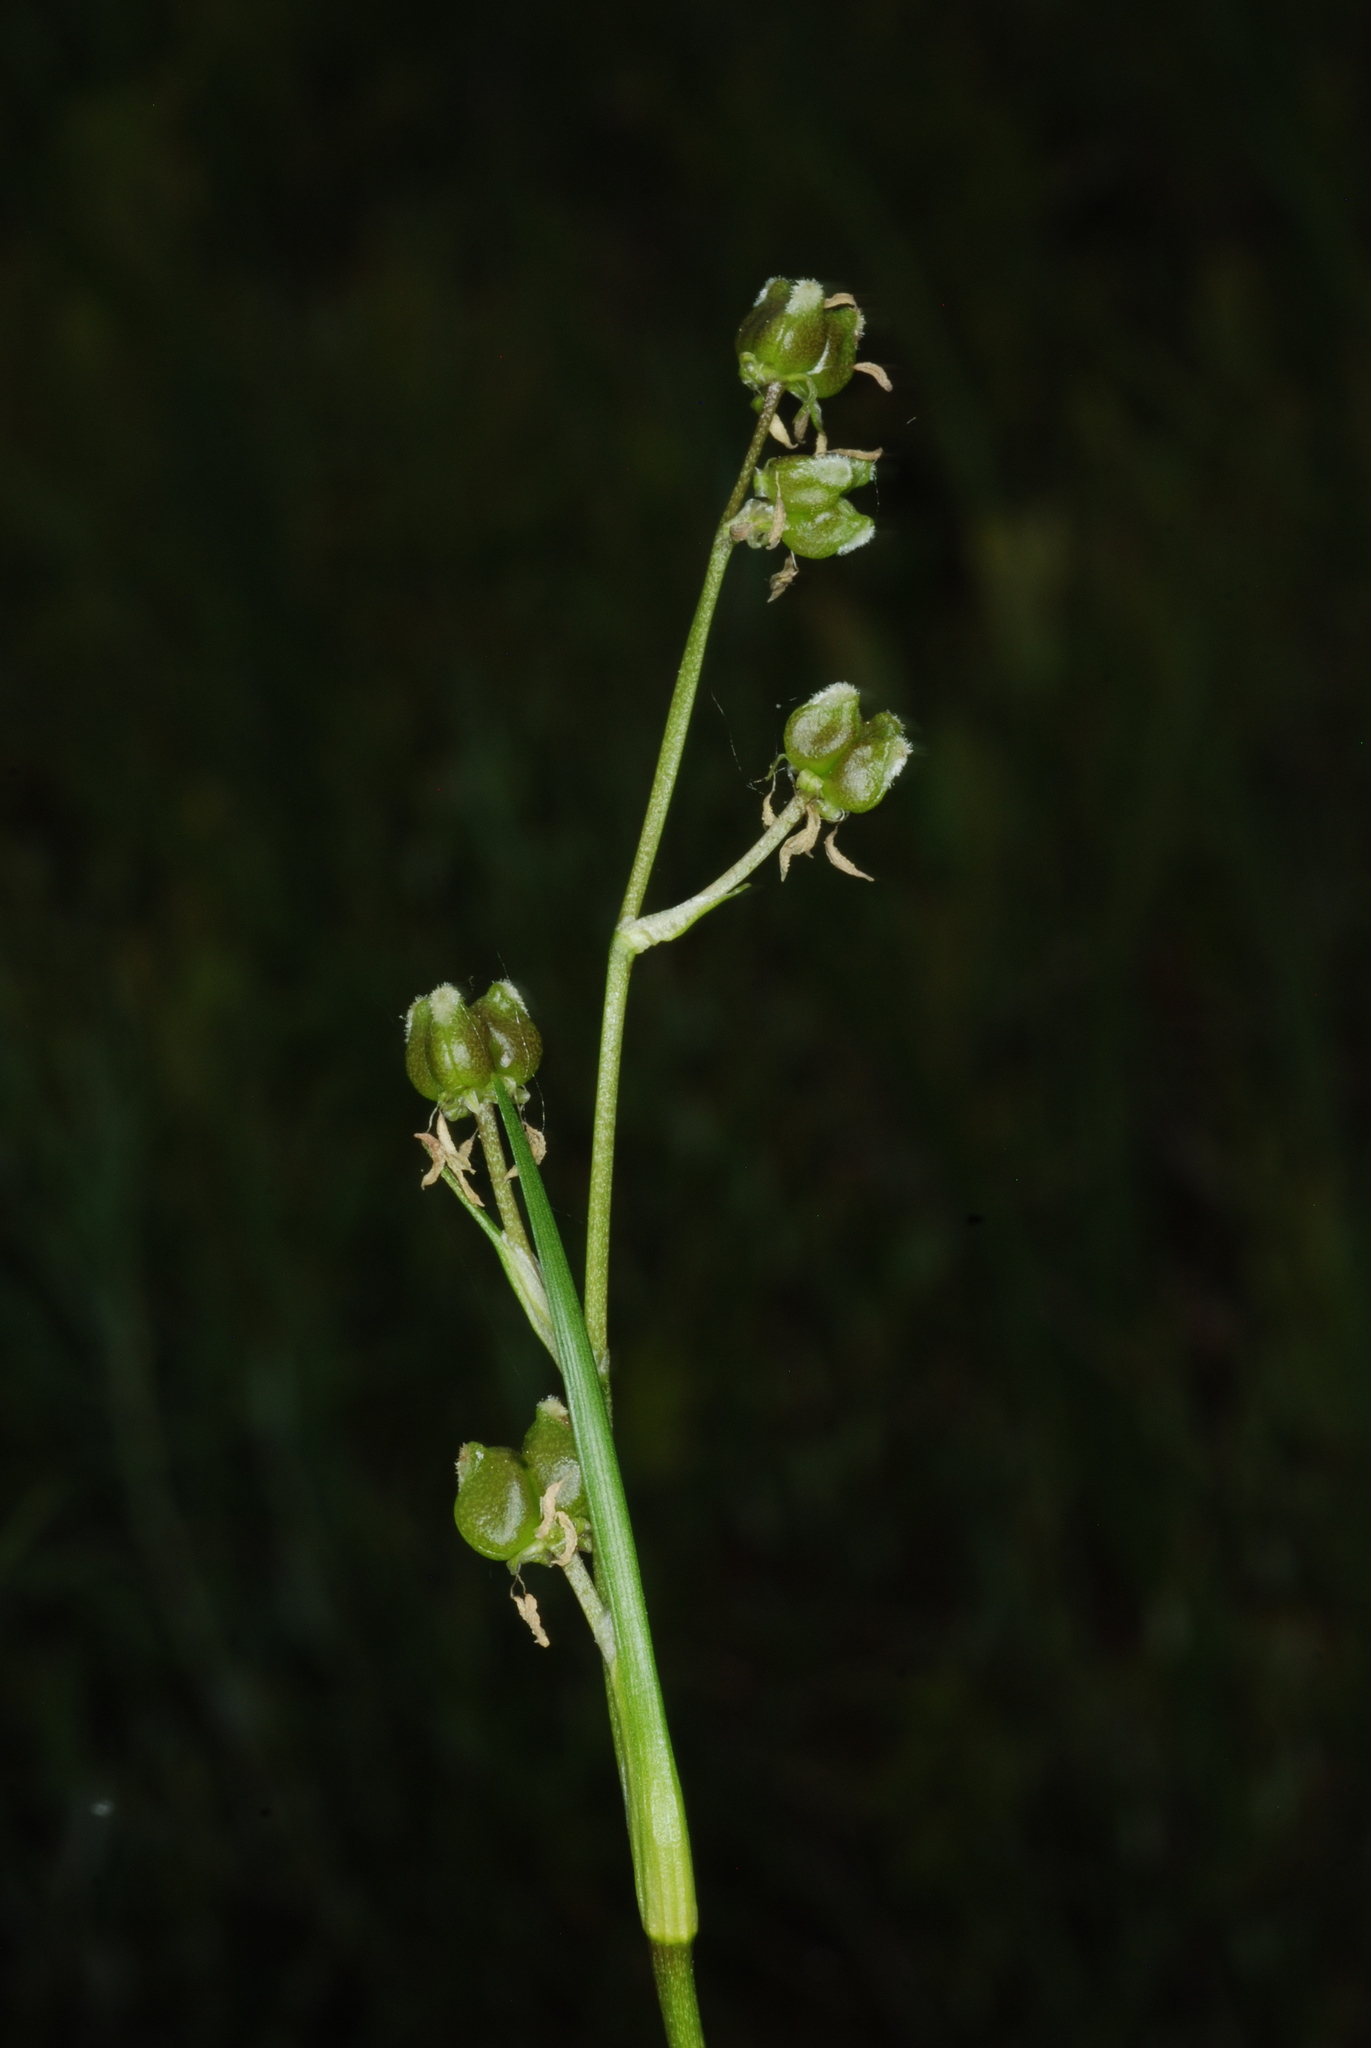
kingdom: Plantae
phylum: Tracheophyta
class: Liliopsida
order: Alismatales
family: Scheuchzeriaceae
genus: Scheuchzeria
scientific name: Scheuchzeria palustris
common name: Rannoch-rush
